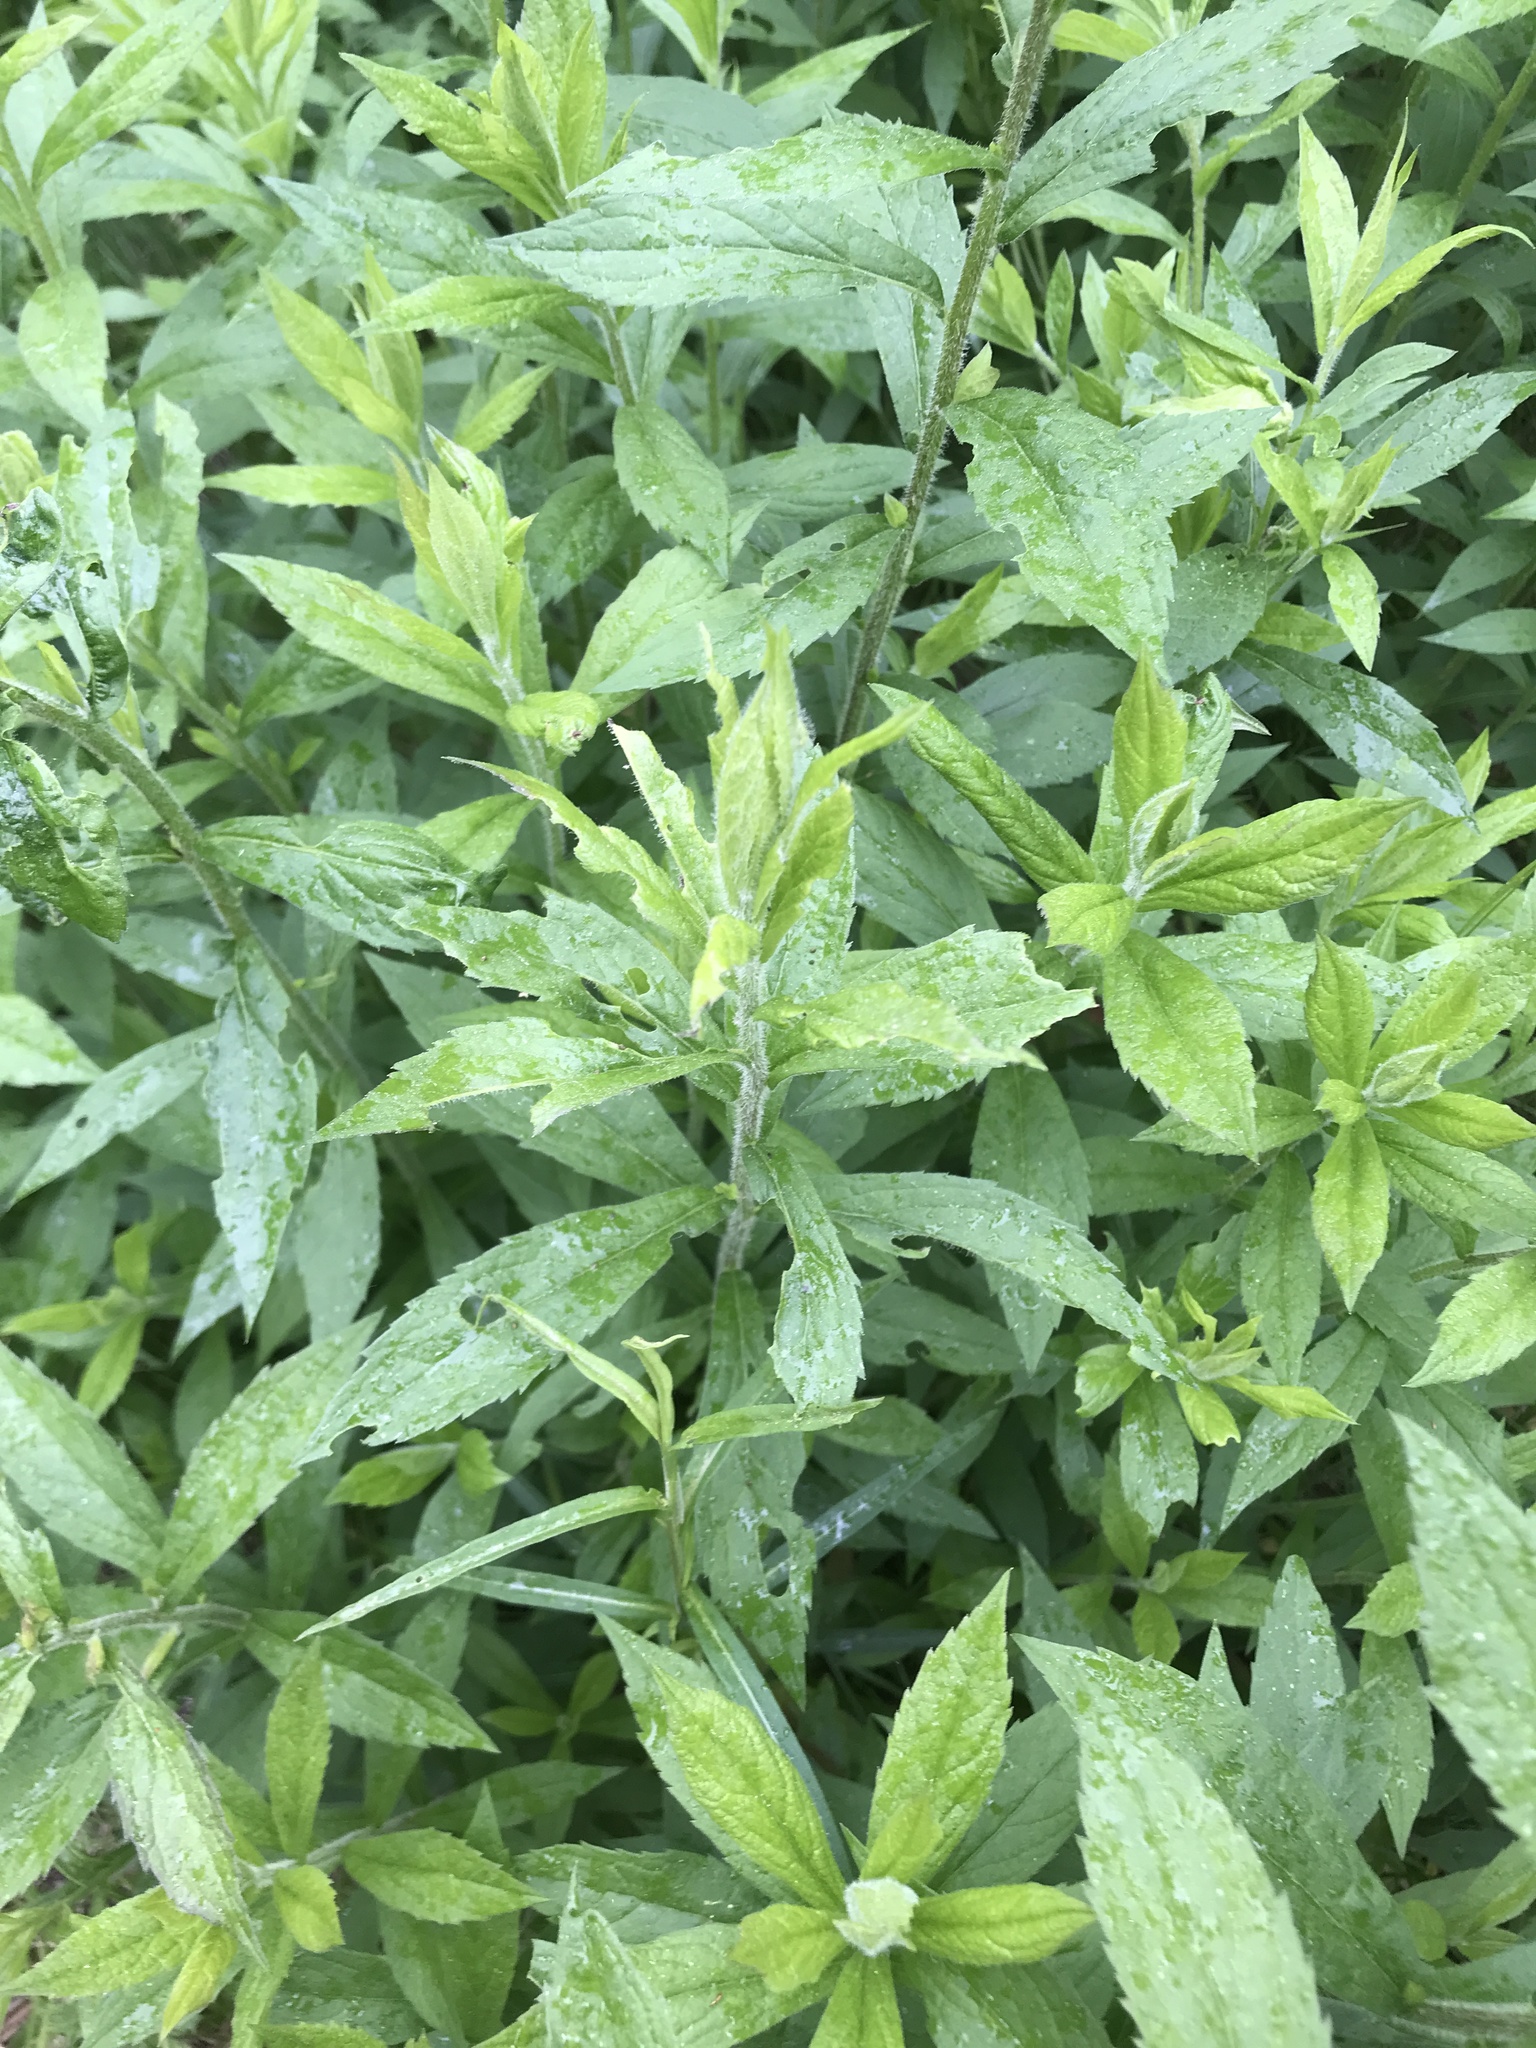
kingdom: Plantae
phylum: Tracheophyta
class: Magnoliopsida
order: Asterales
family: Asteraceae
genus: Solidago
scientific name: Solidago rugosa
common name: Rough-stemmed goldenrod
